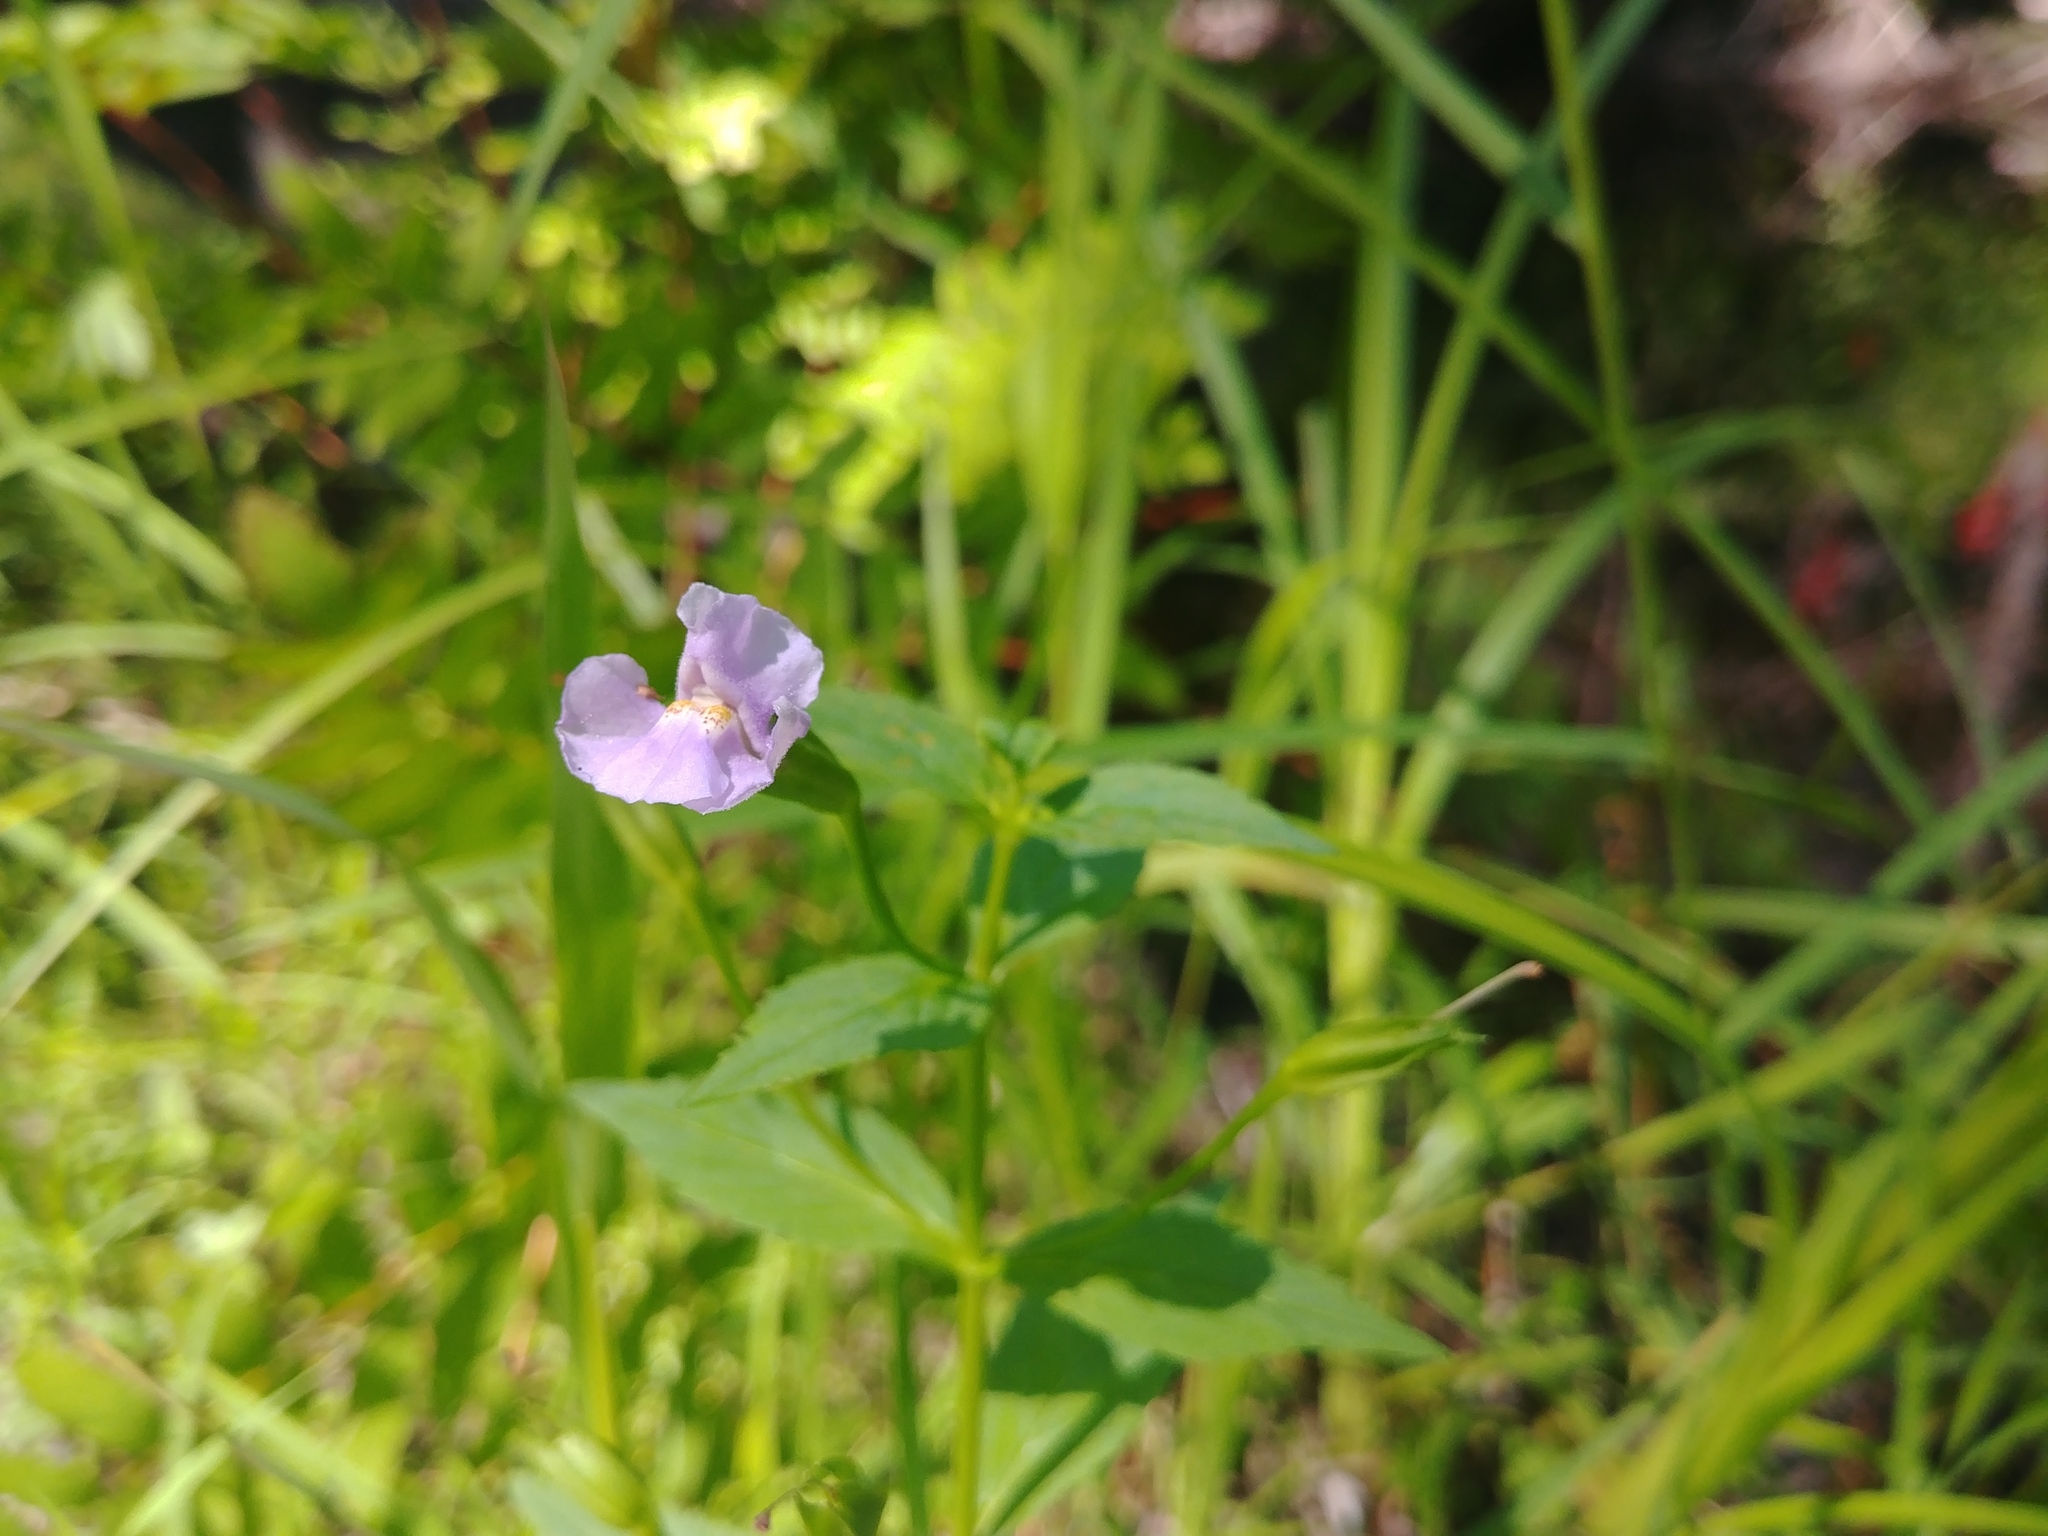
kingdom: Plantae
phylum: Tracheophyta
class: Magnoliopsida
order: Lamiales
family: Phrymaceae
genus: Mimulus
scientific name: Mimulus ringens
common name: Allegheny monkeyflower
